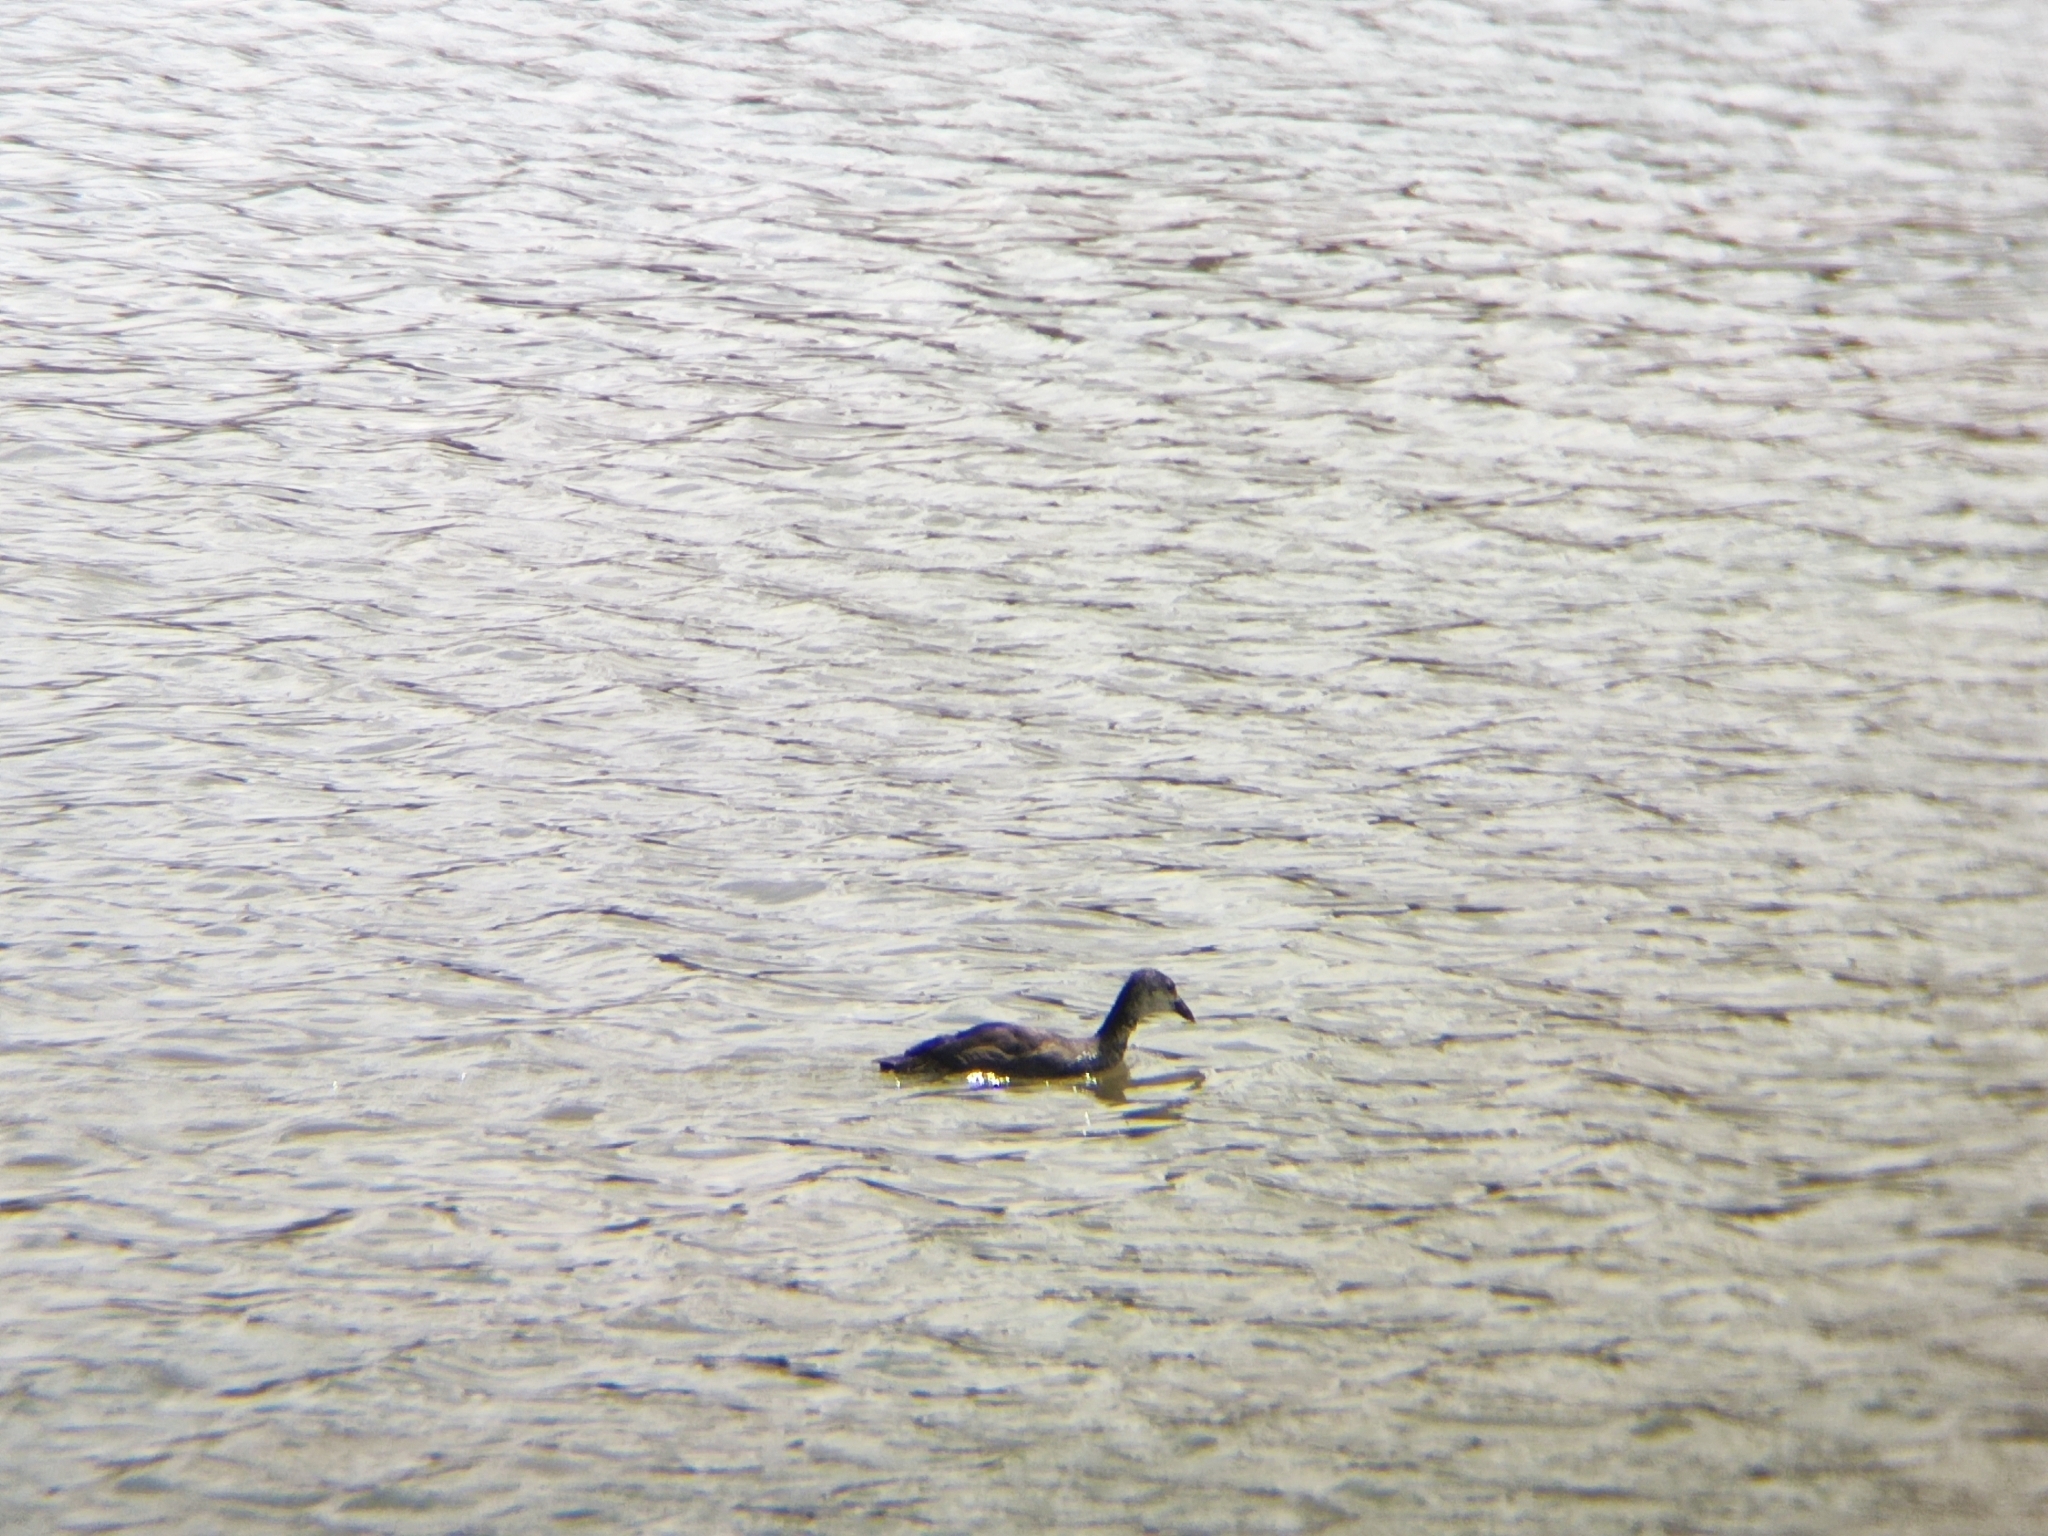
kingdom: Animalia
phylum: Chordata
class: Aves
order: Gruiformes
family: Rallidae
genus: Fulica
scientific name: Fulica atra
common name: Eurasian coot
